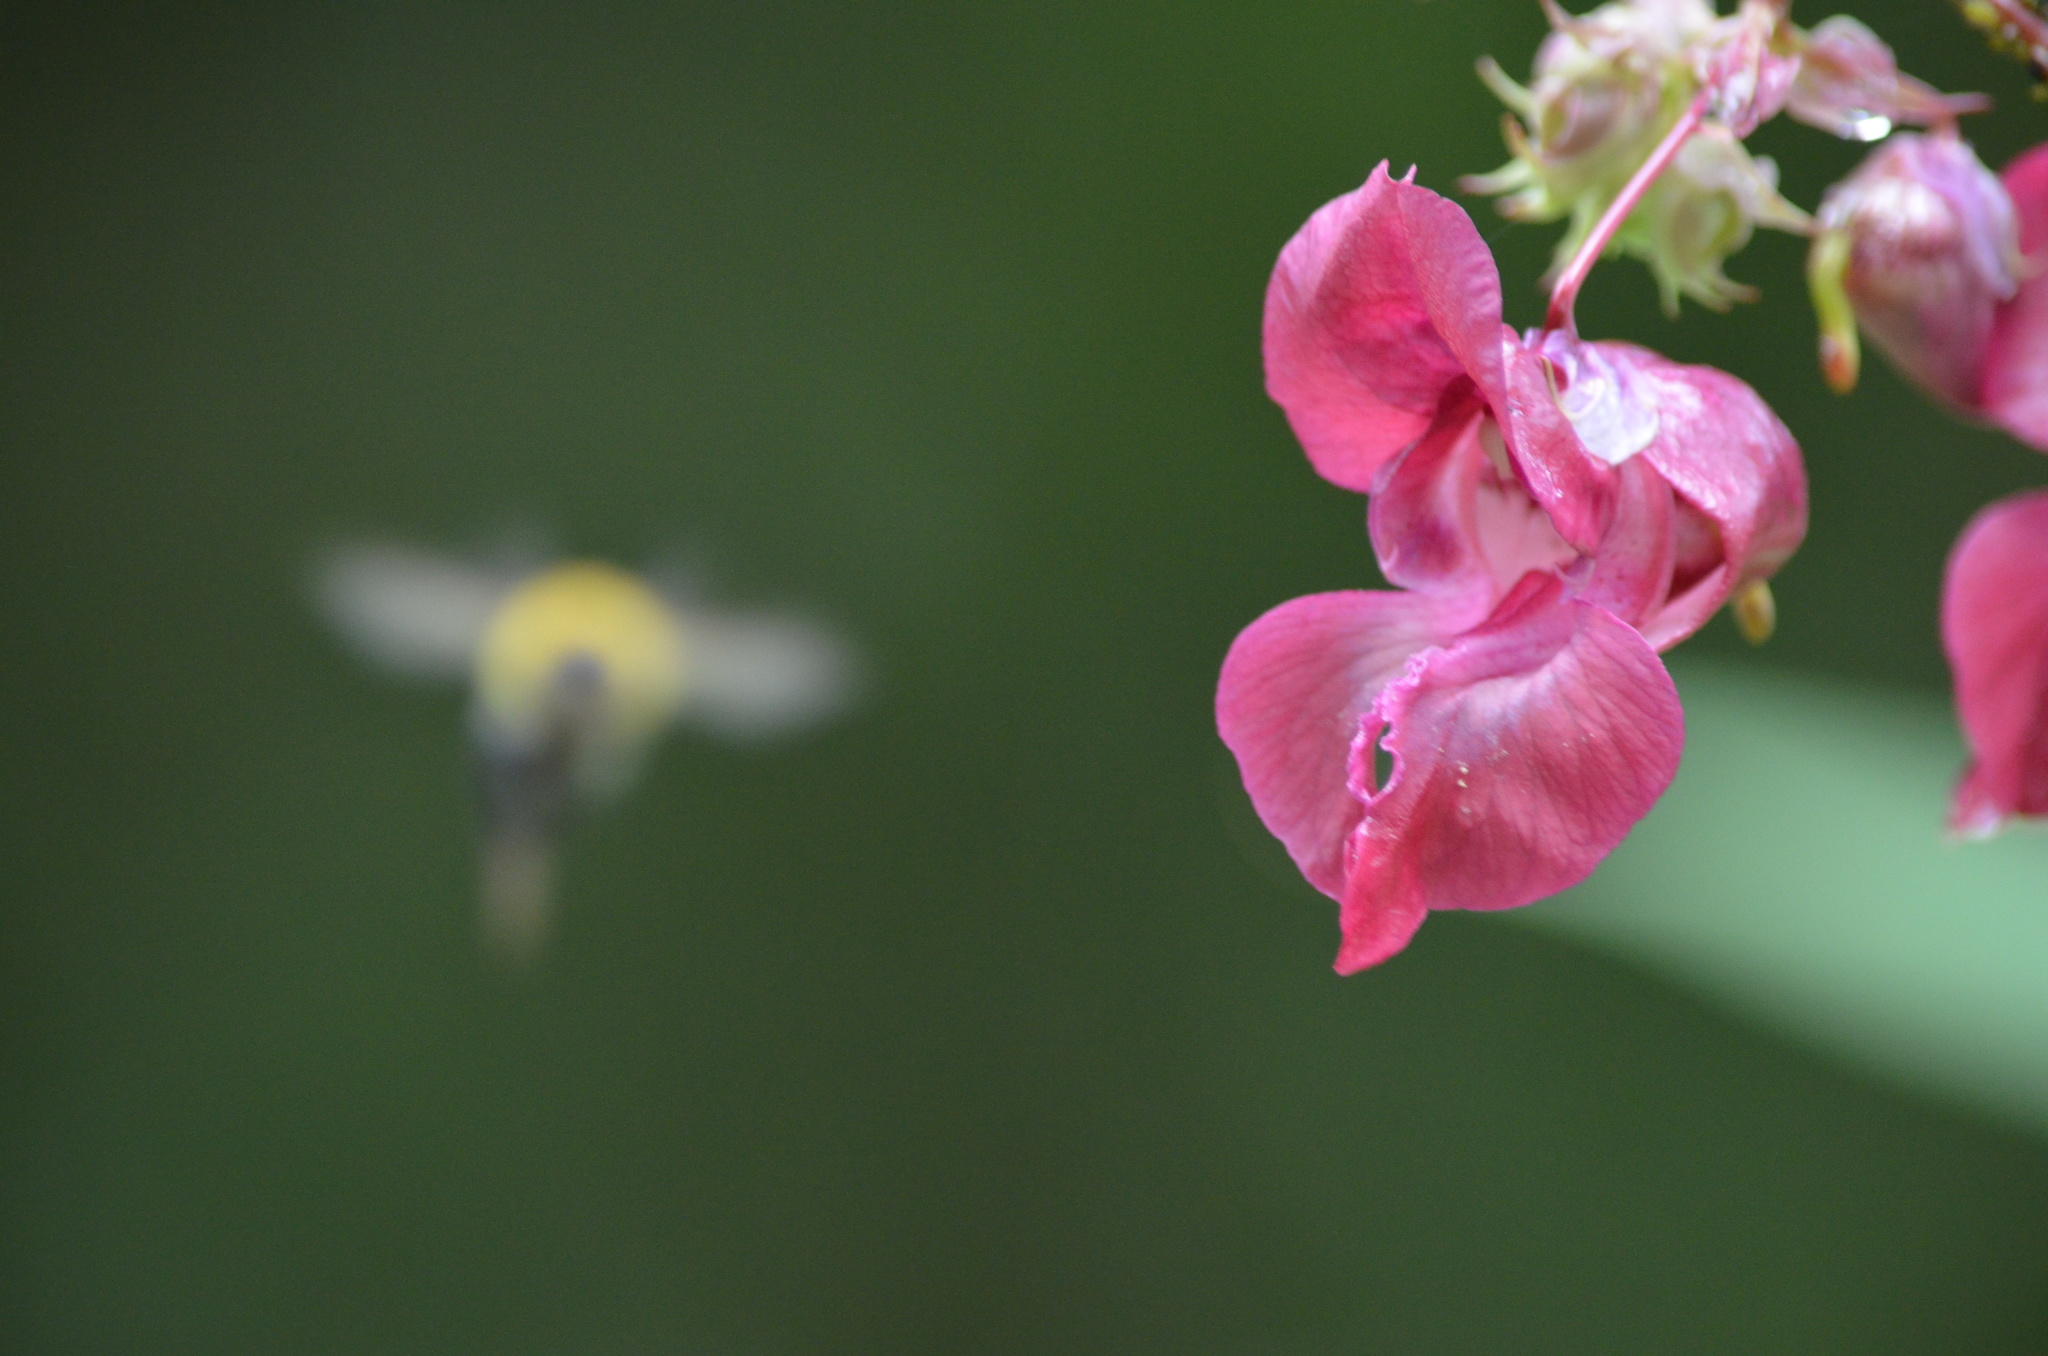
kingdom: Animalia
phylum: Arthropoda
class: Insecta
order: Hymenoptera
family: Apidae
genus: Bombus
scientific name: Bombus argillaceus
